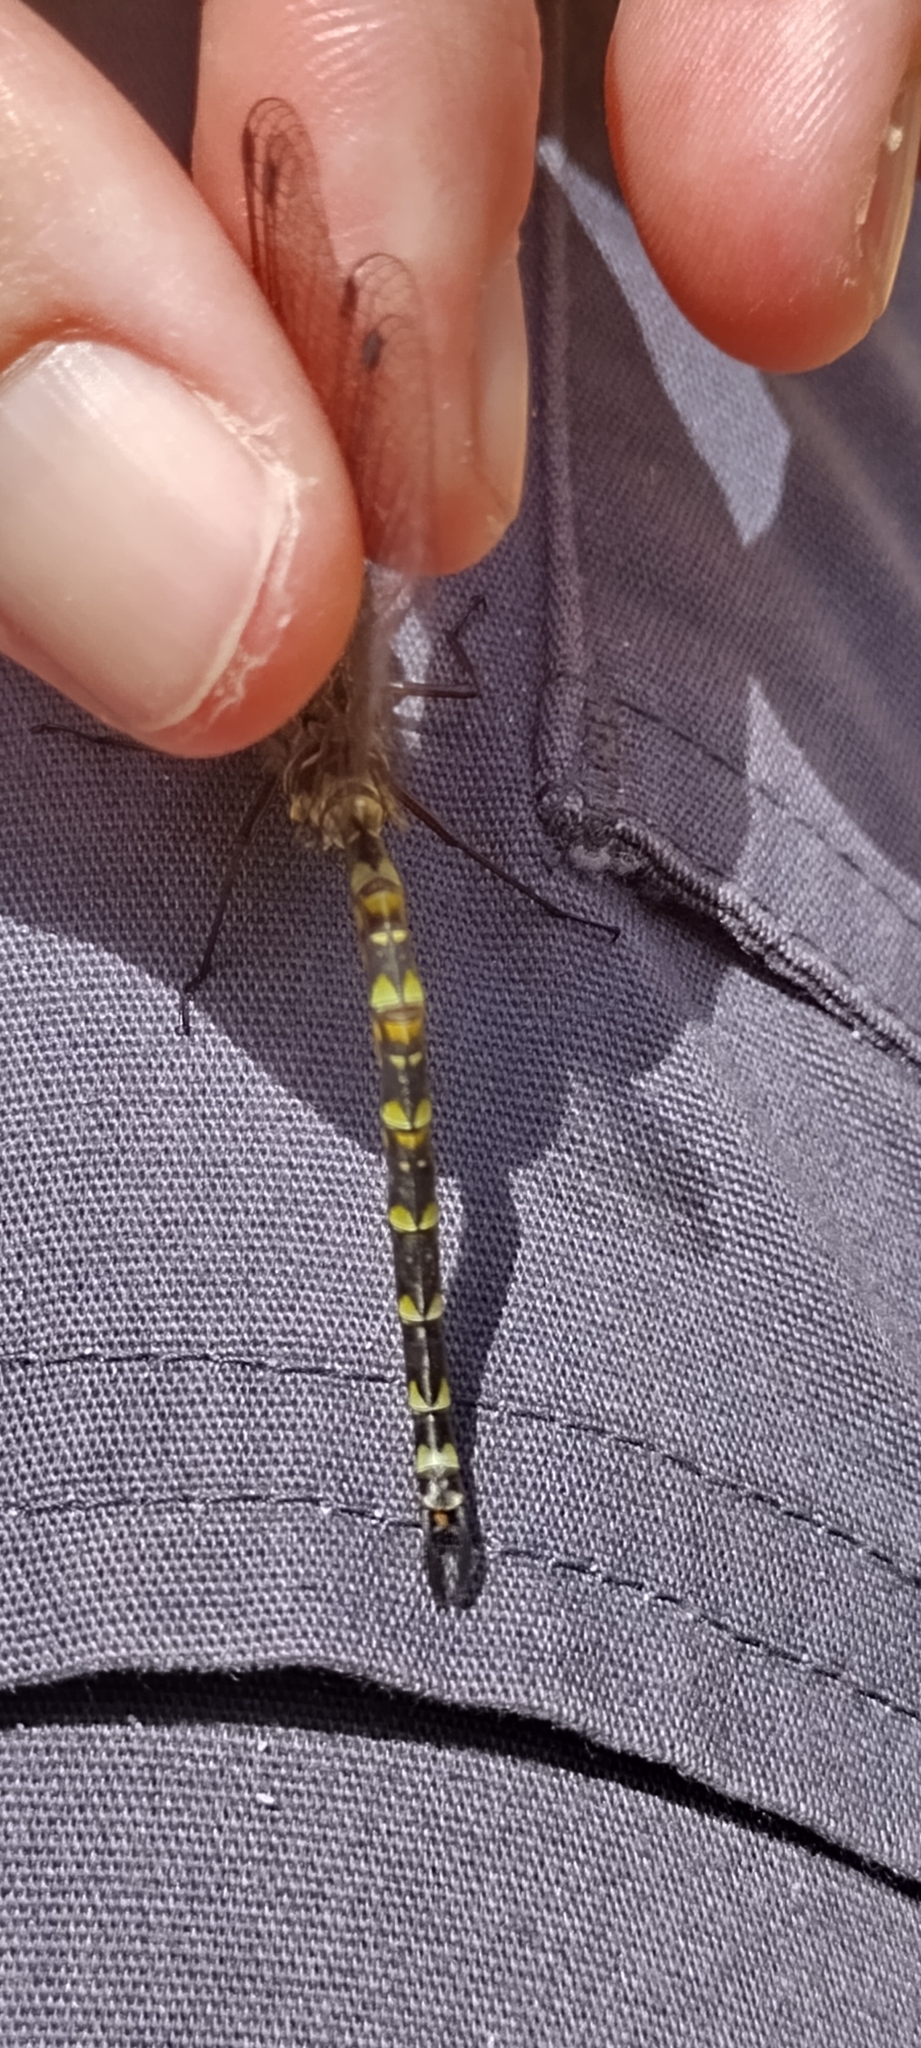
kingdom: Animalia
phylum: Arthropoda
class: Insecta
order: Odonata
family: Aeshnidae
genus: Gomphaeschna
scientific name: Gomphaeschna furcillata
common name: Harlequin darner
